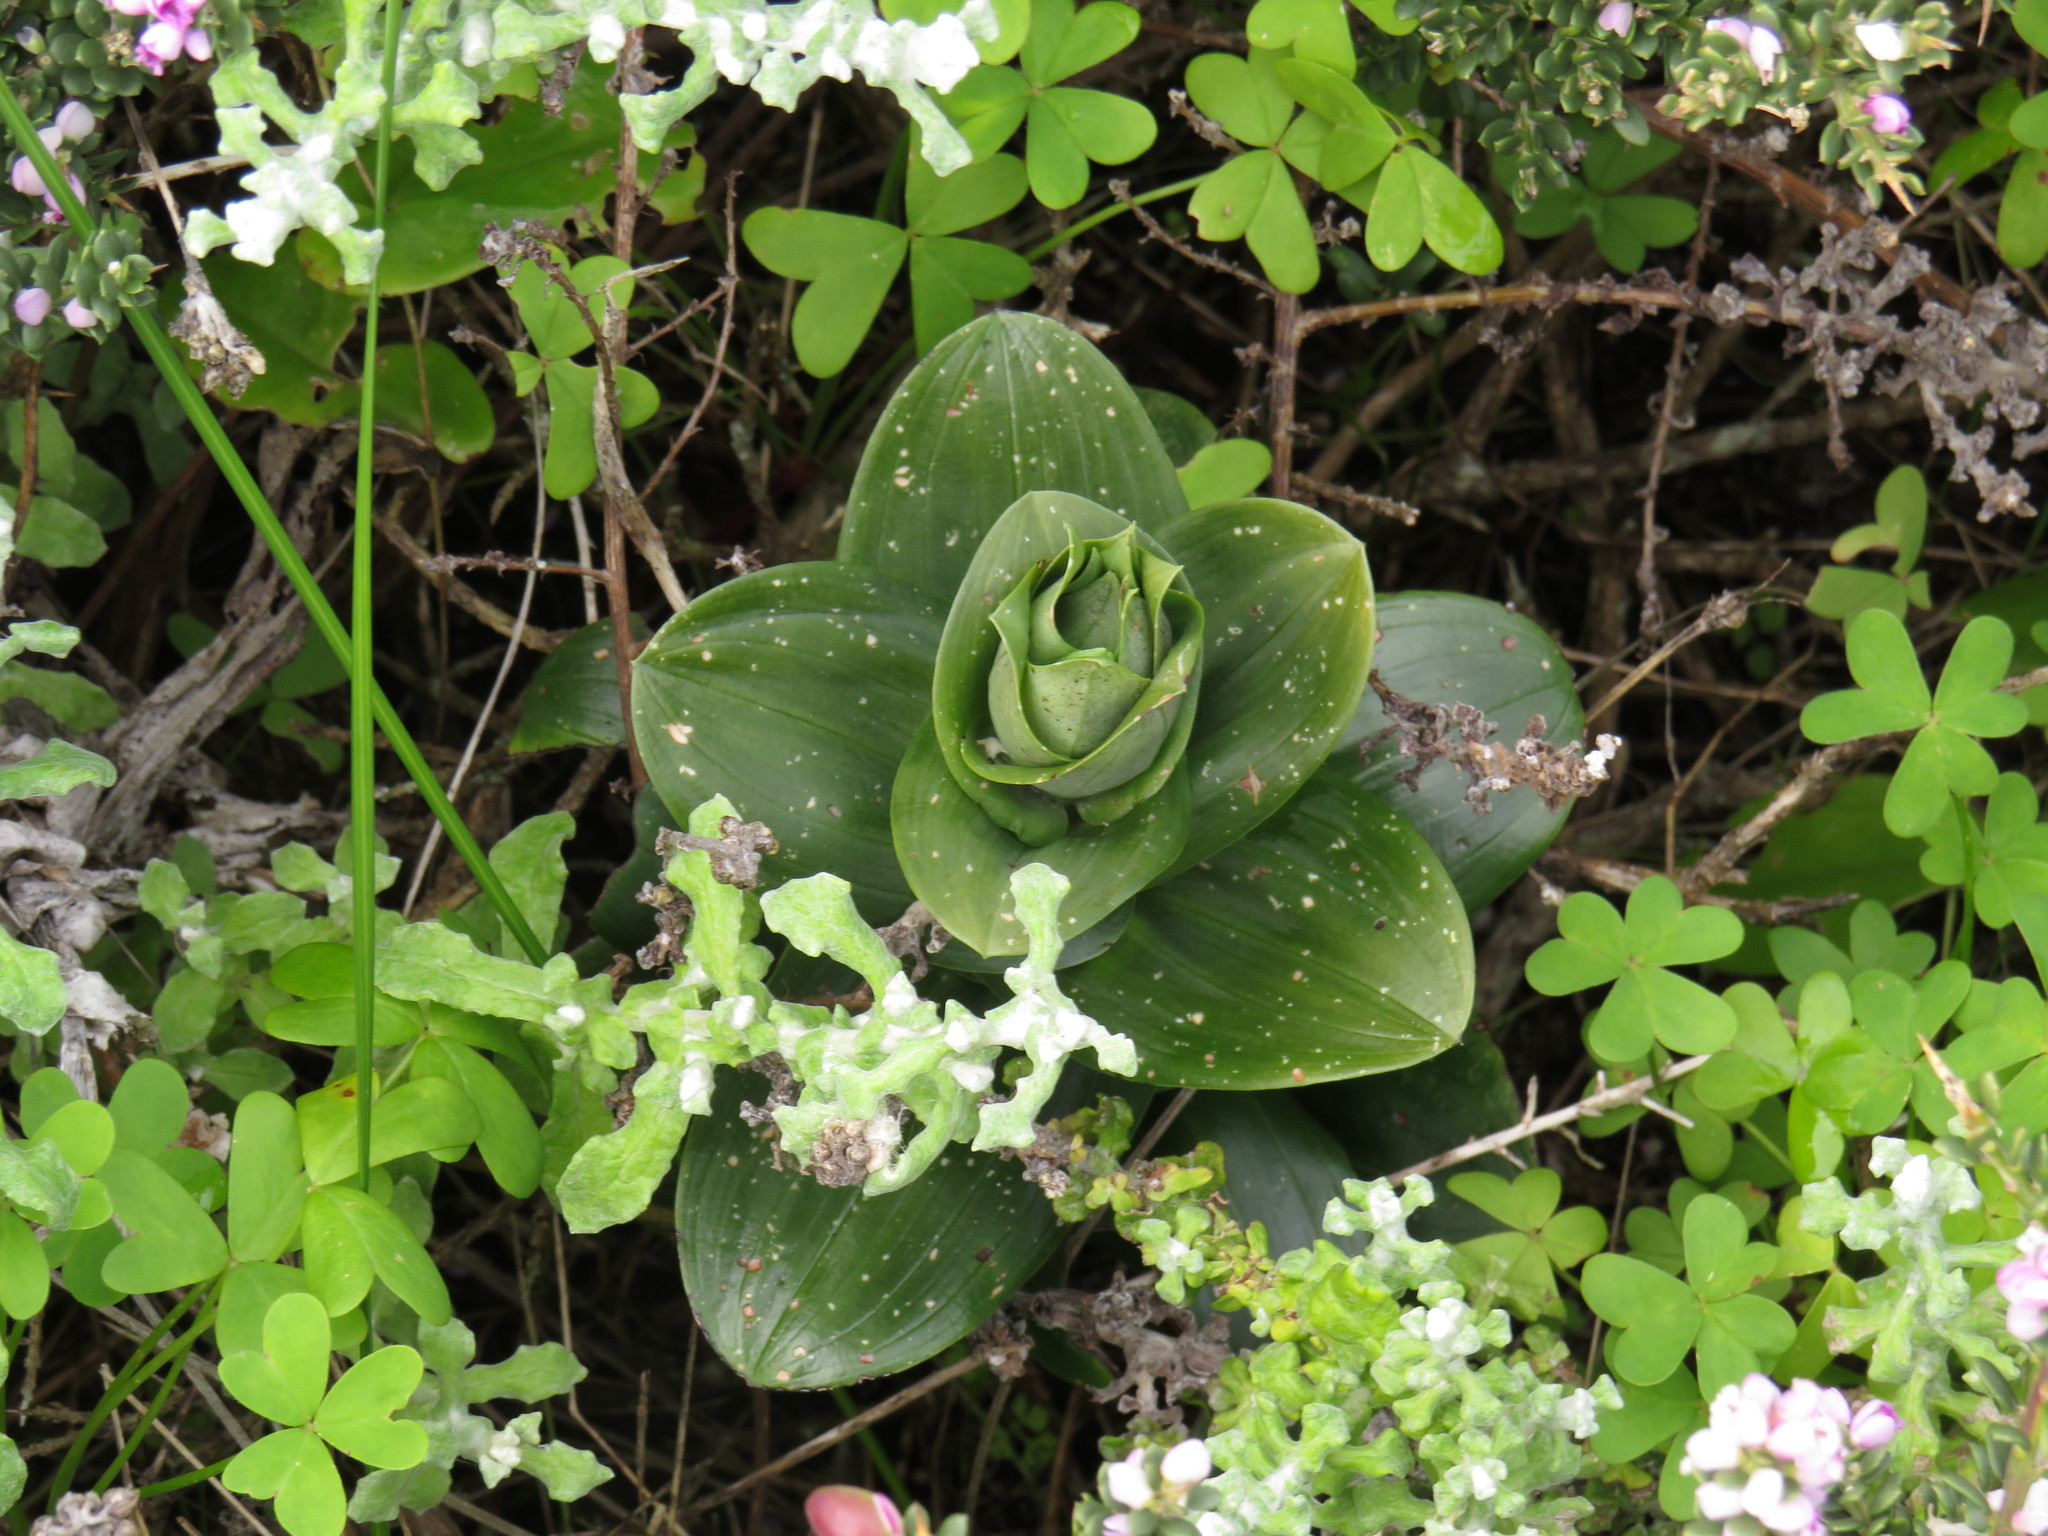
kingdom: Plantae
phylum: Tracheophyta
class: Liliopsida
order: Asparagales
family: Orchidaceae
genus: Bonatea
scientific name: Bonatea speciosa
